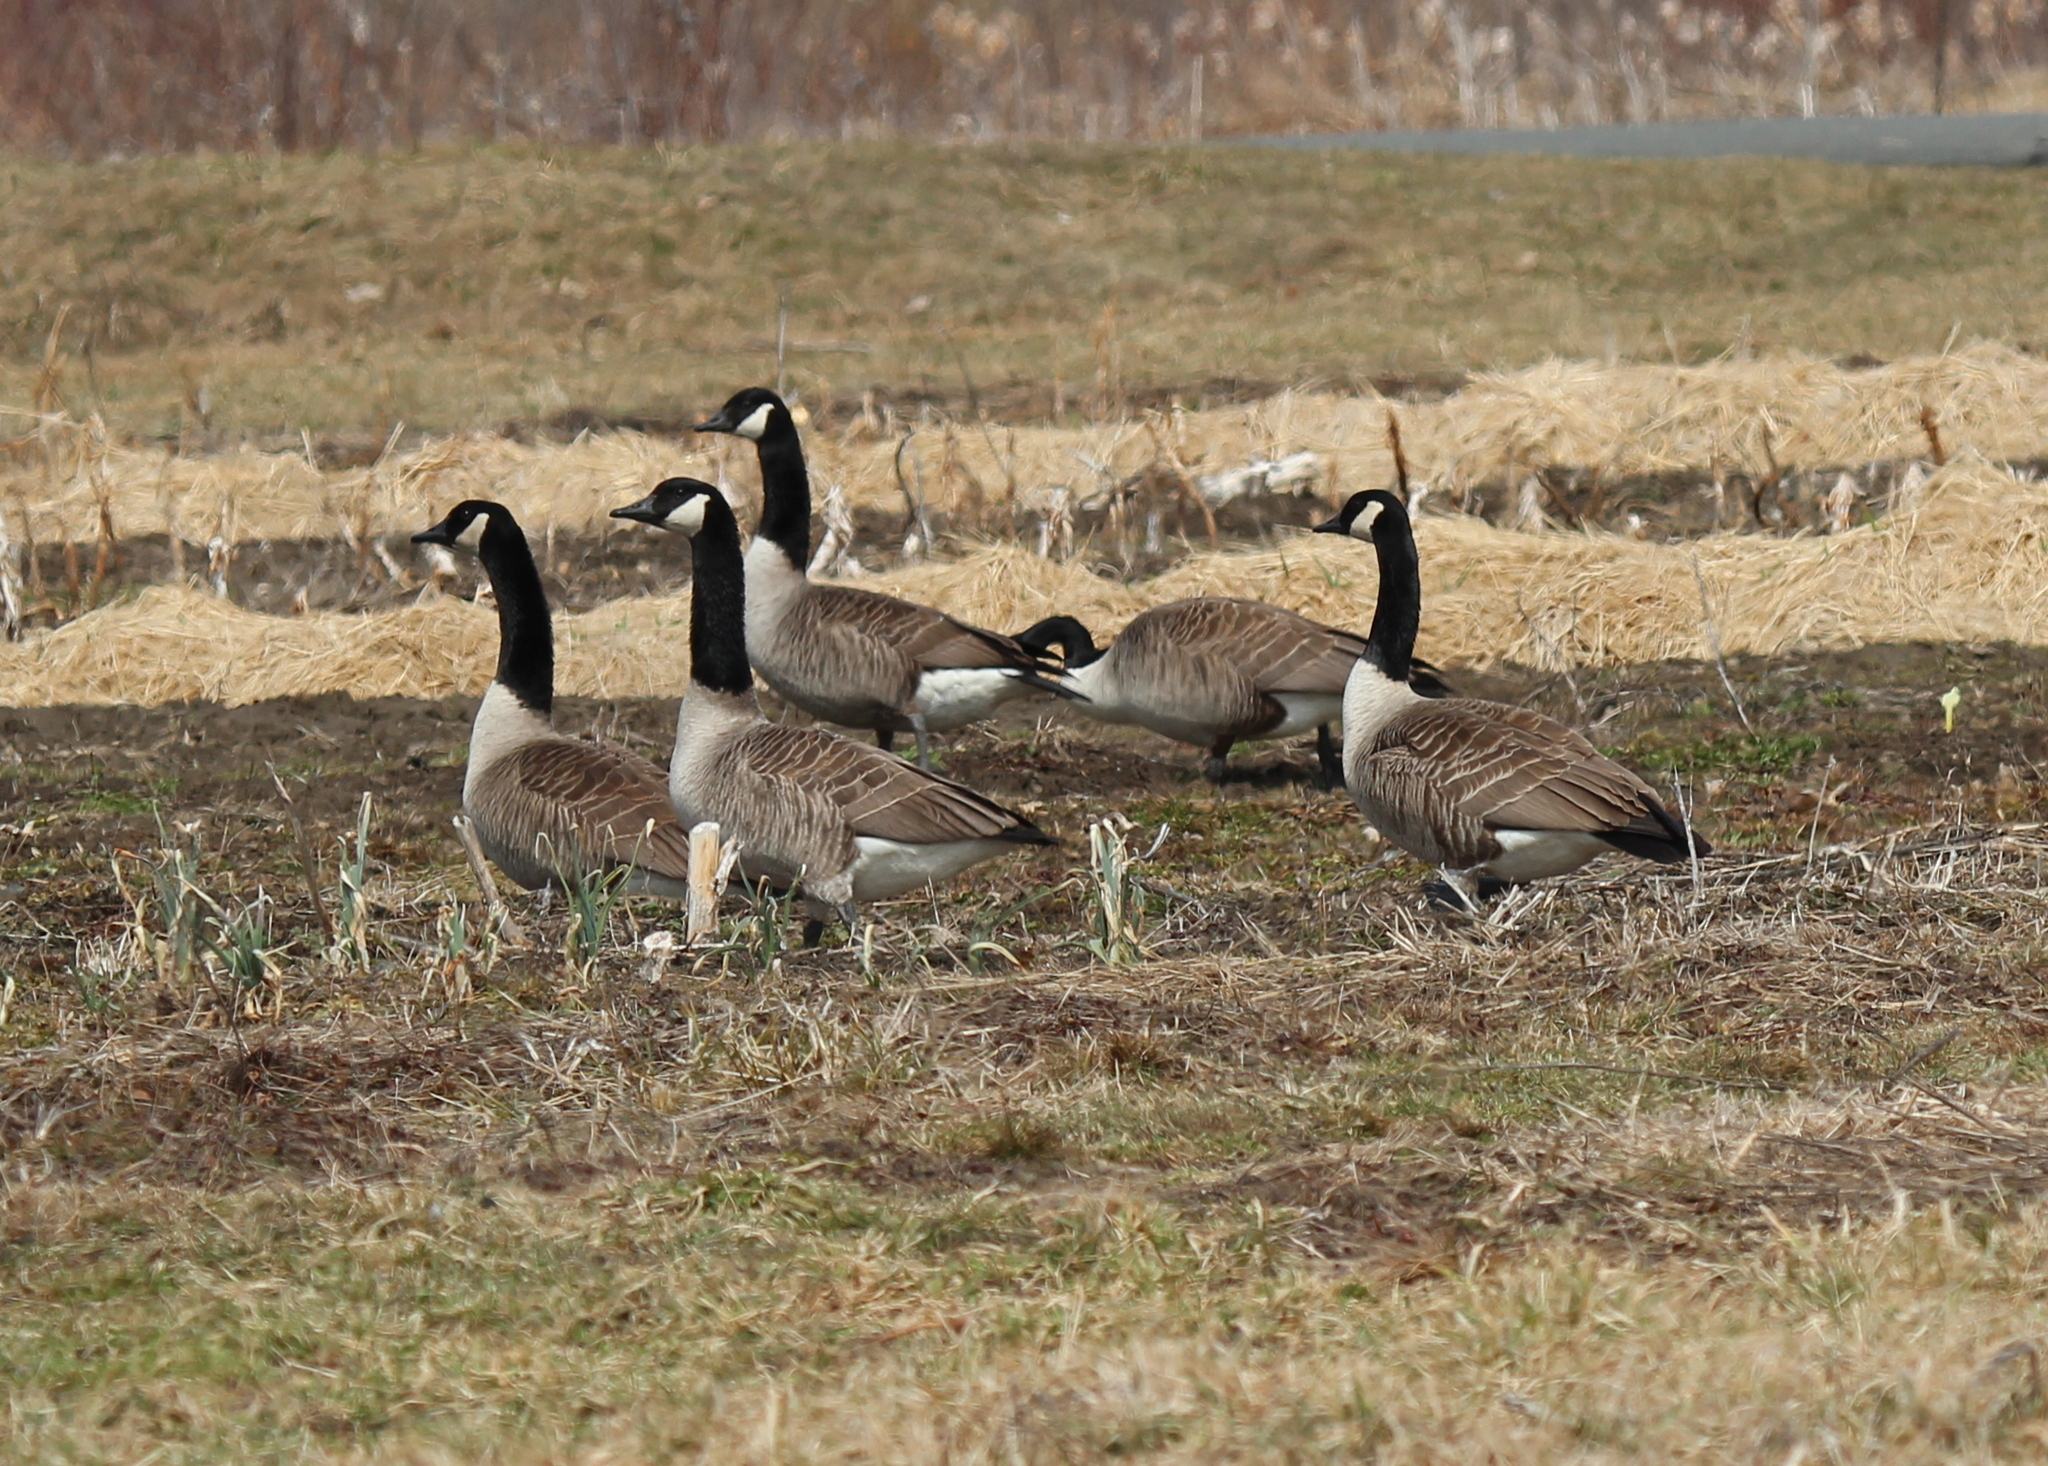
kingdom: Animalia
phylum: Chordata
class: Aves
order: Anseriformes
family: Anatidae
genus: Branta
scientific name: Branta canadensis
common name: Canada goose
